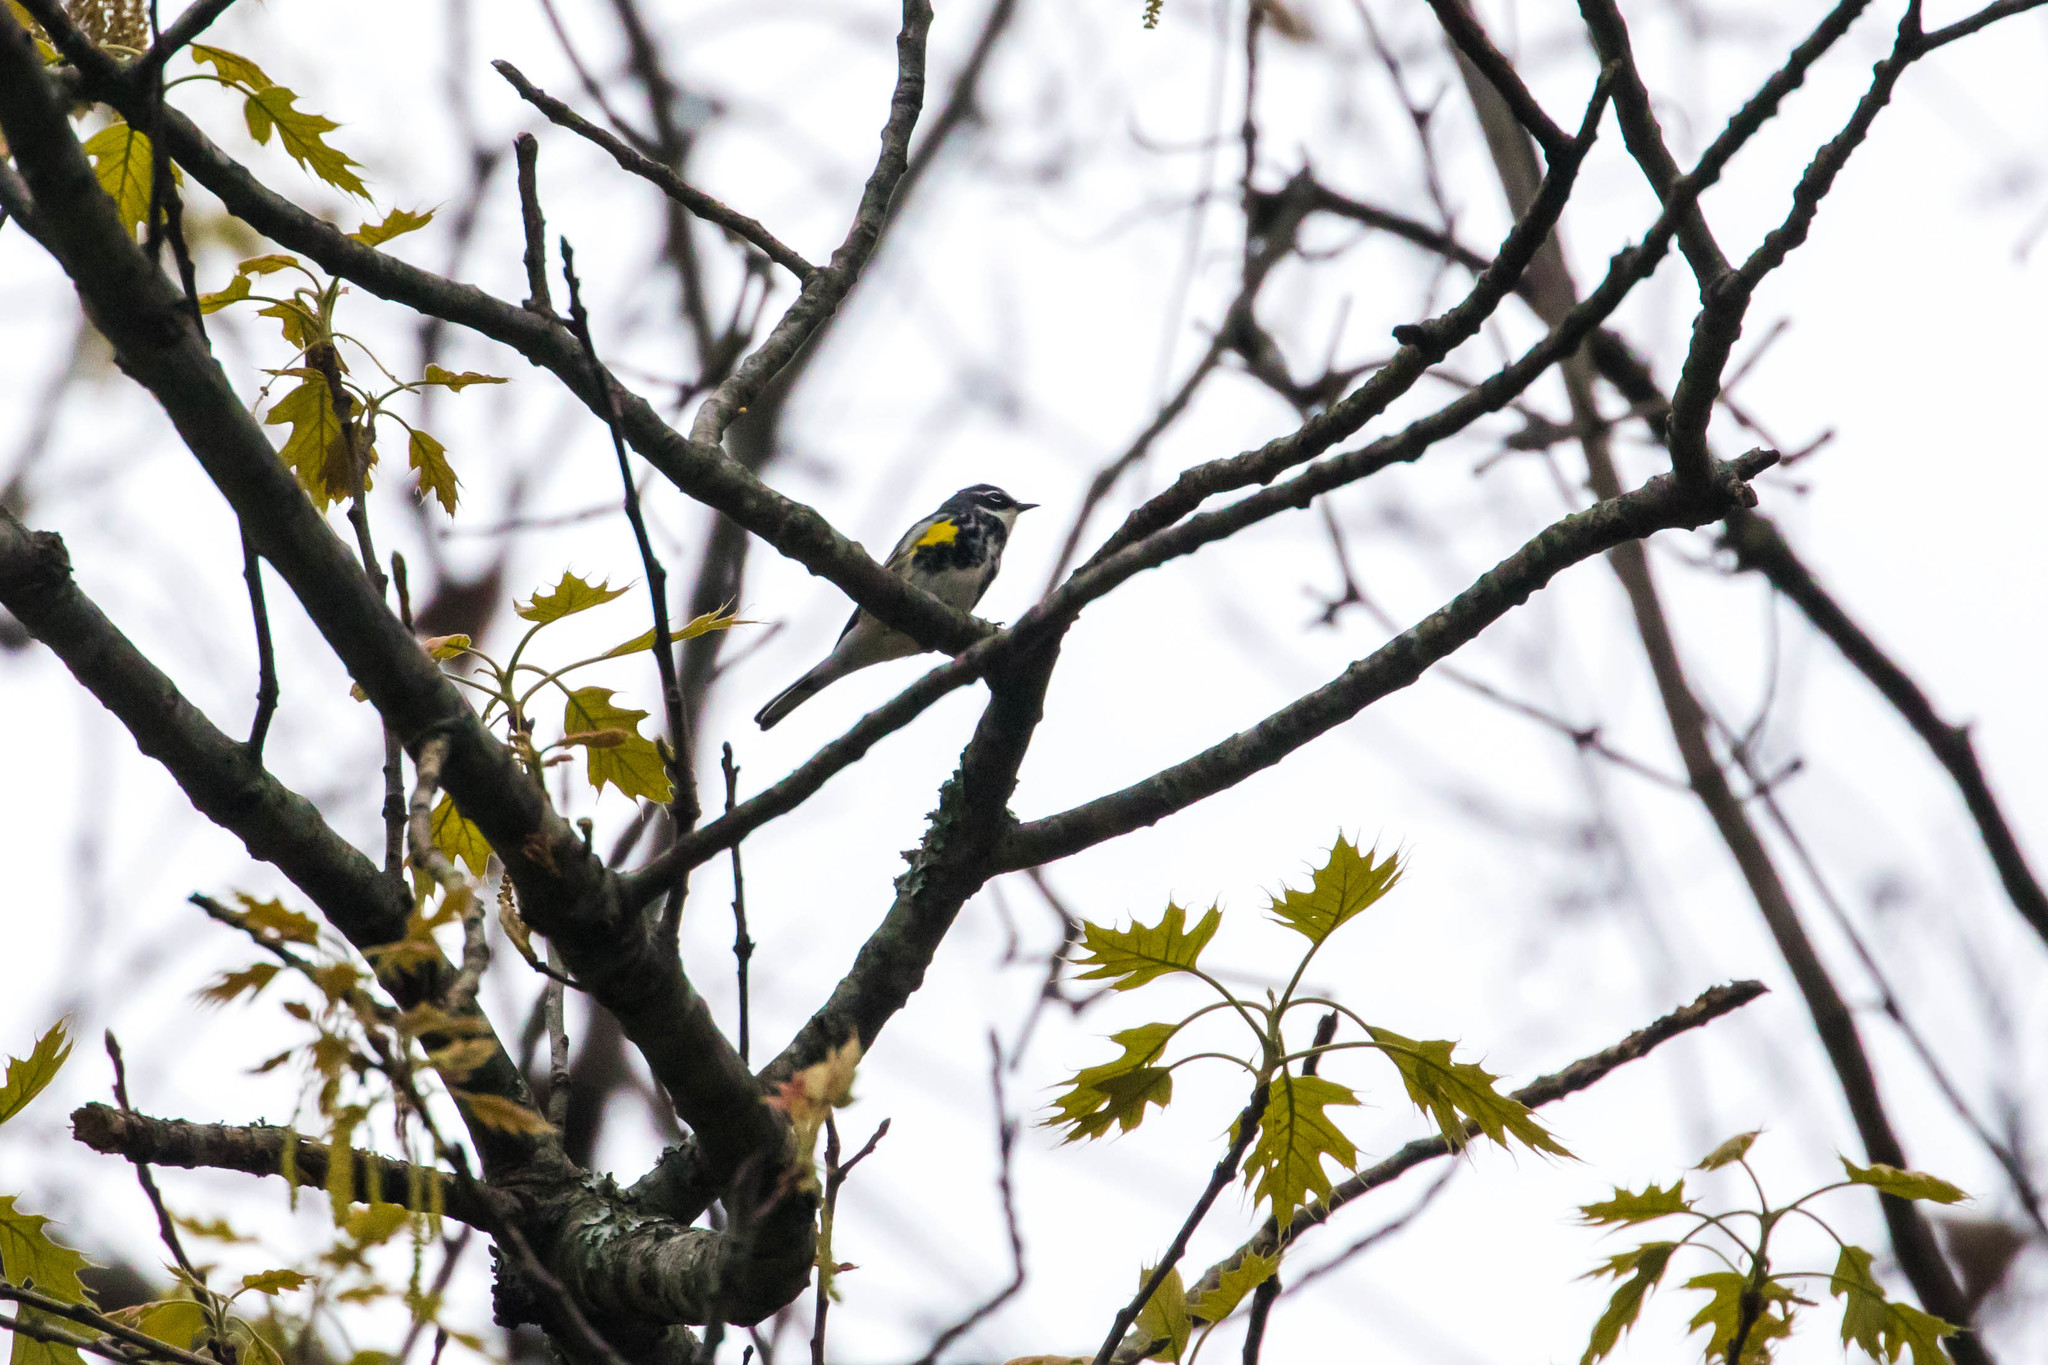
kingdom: Animalia
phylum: Chordata
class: Aves
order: Passeriformes
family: Parulidae
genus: Setophaga
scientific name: Setophaga coronata
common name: Myrtle warbler
